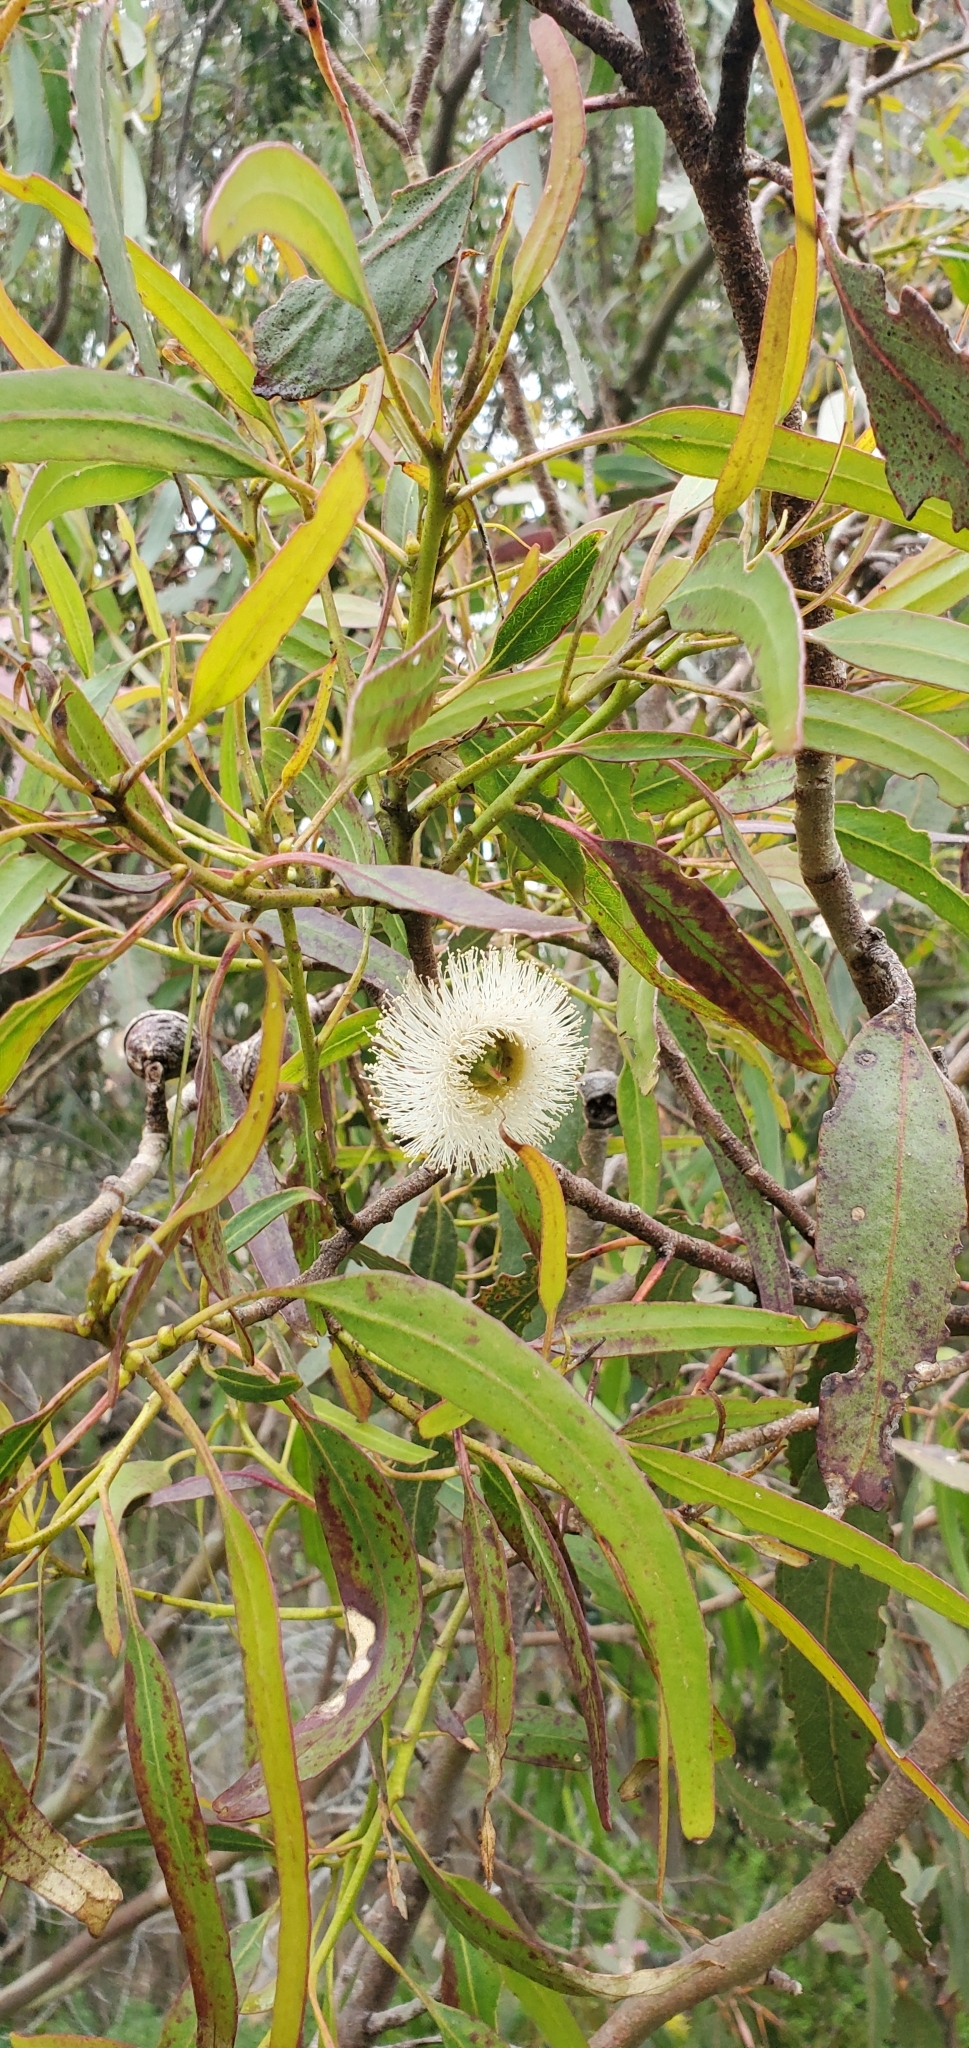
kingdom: Plantae
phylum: Tracheophyta
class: Magnoliopsida
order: Myrtales
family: Myrtaceae
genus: Eucalyptus
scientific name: Eucalyptus globulus
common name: Southern blue-gum
